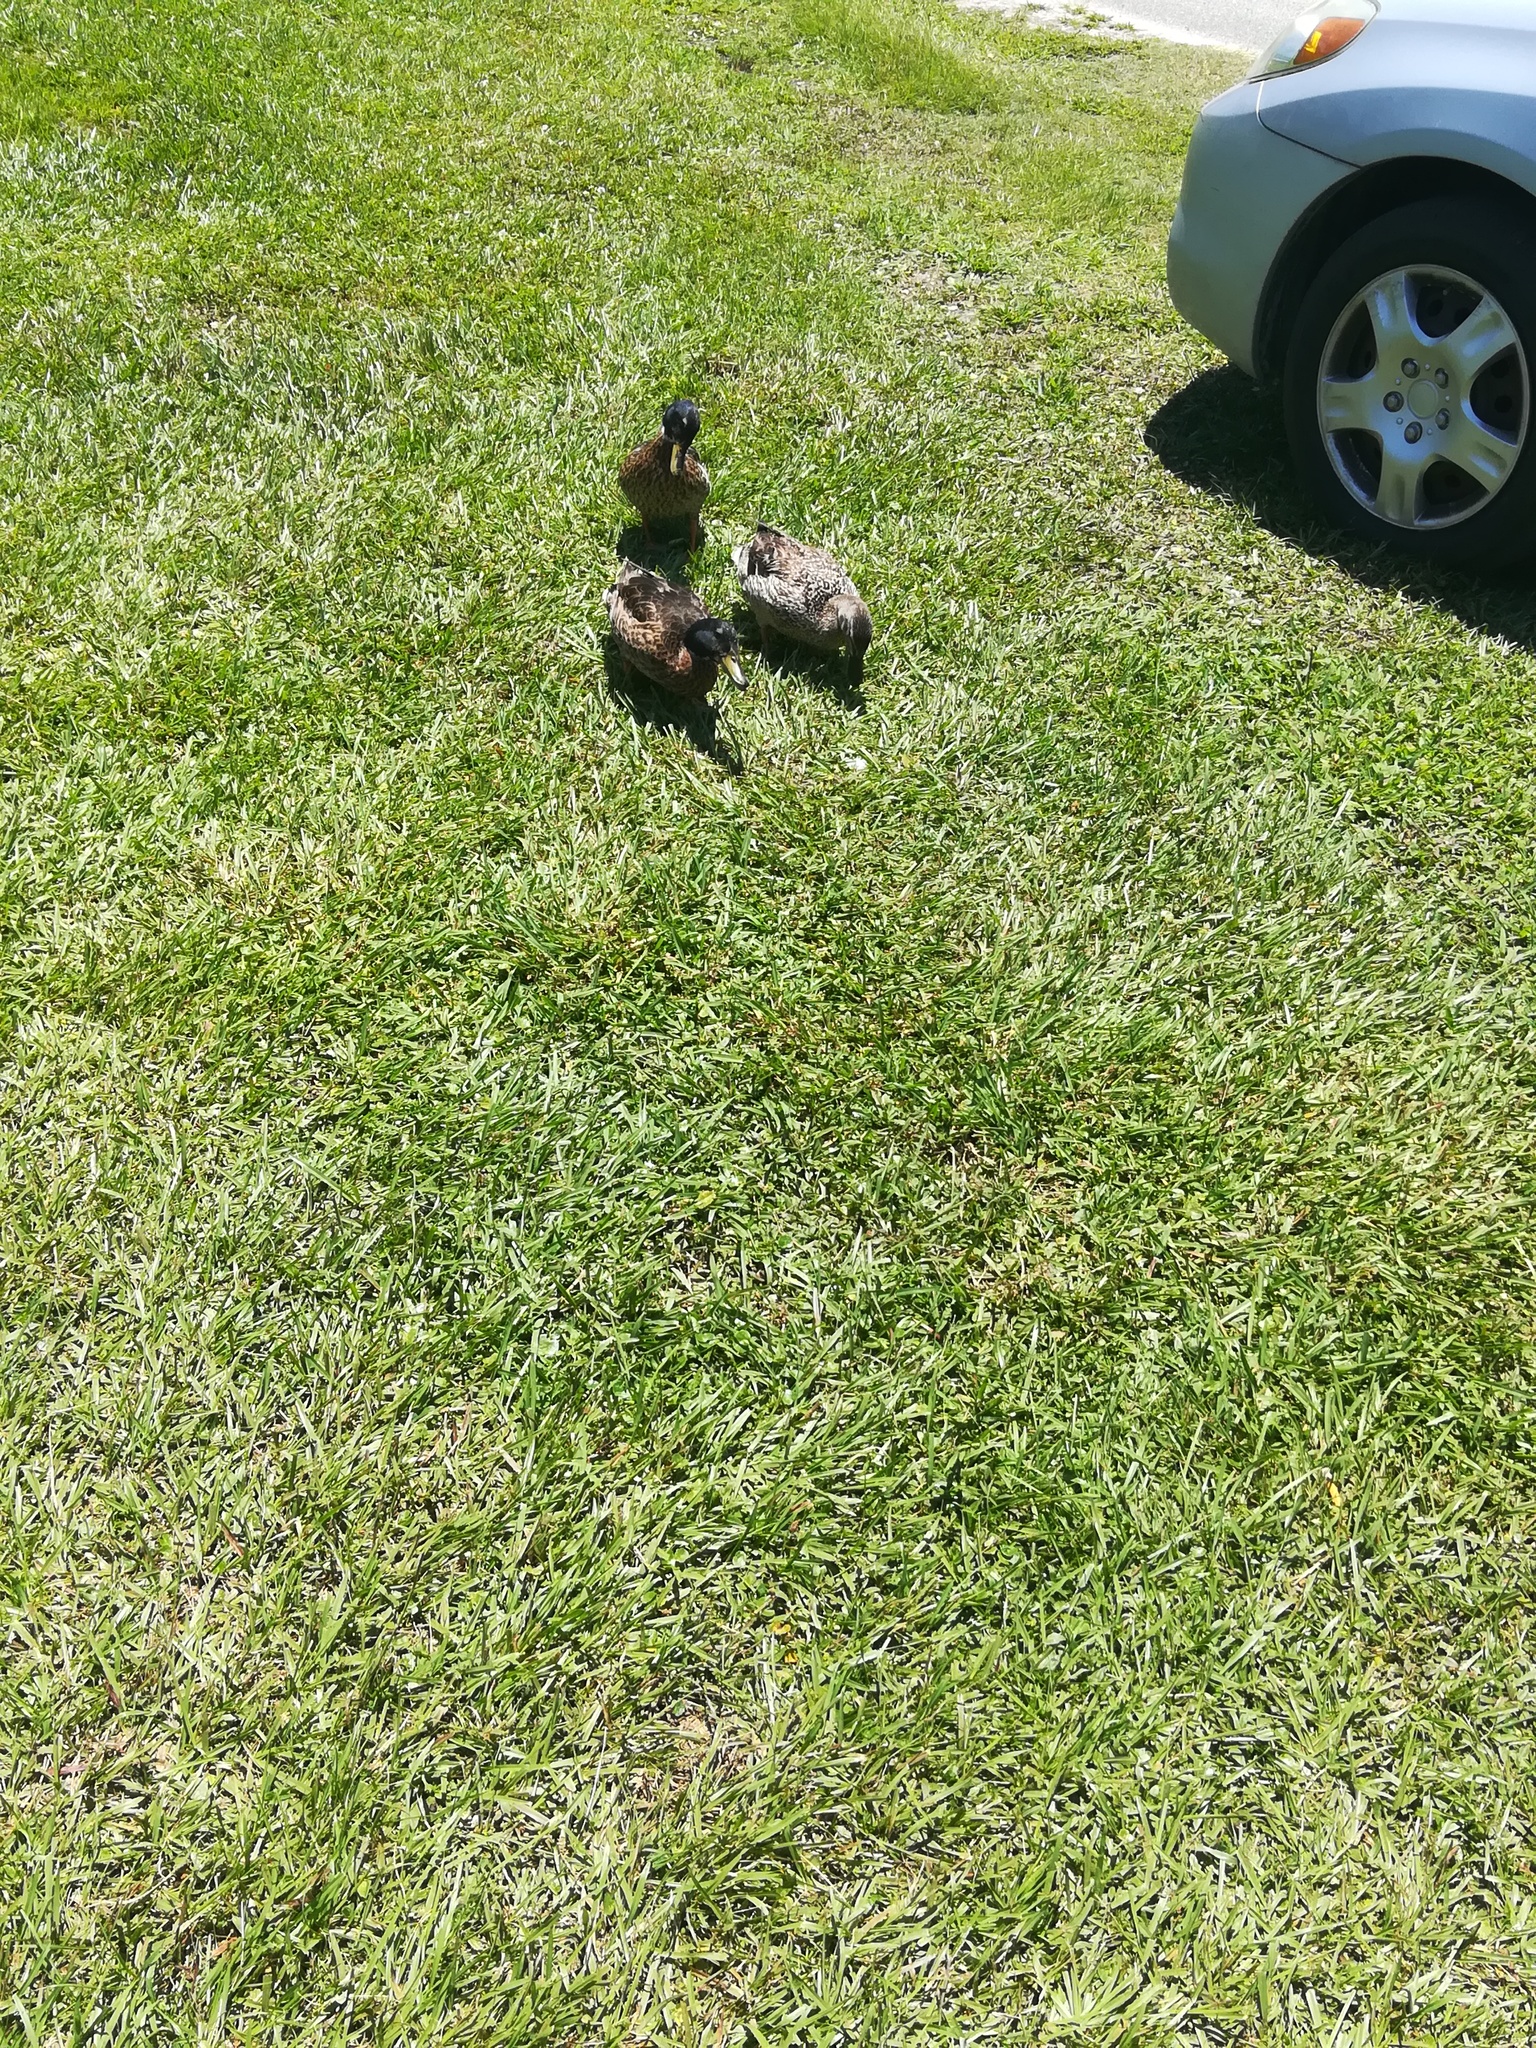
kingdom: Animalia
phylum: Chordata
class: Aves
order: Anseriformes
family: Anatidae
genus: Anas
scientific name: Anas platyrhynchos
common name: Mallard
